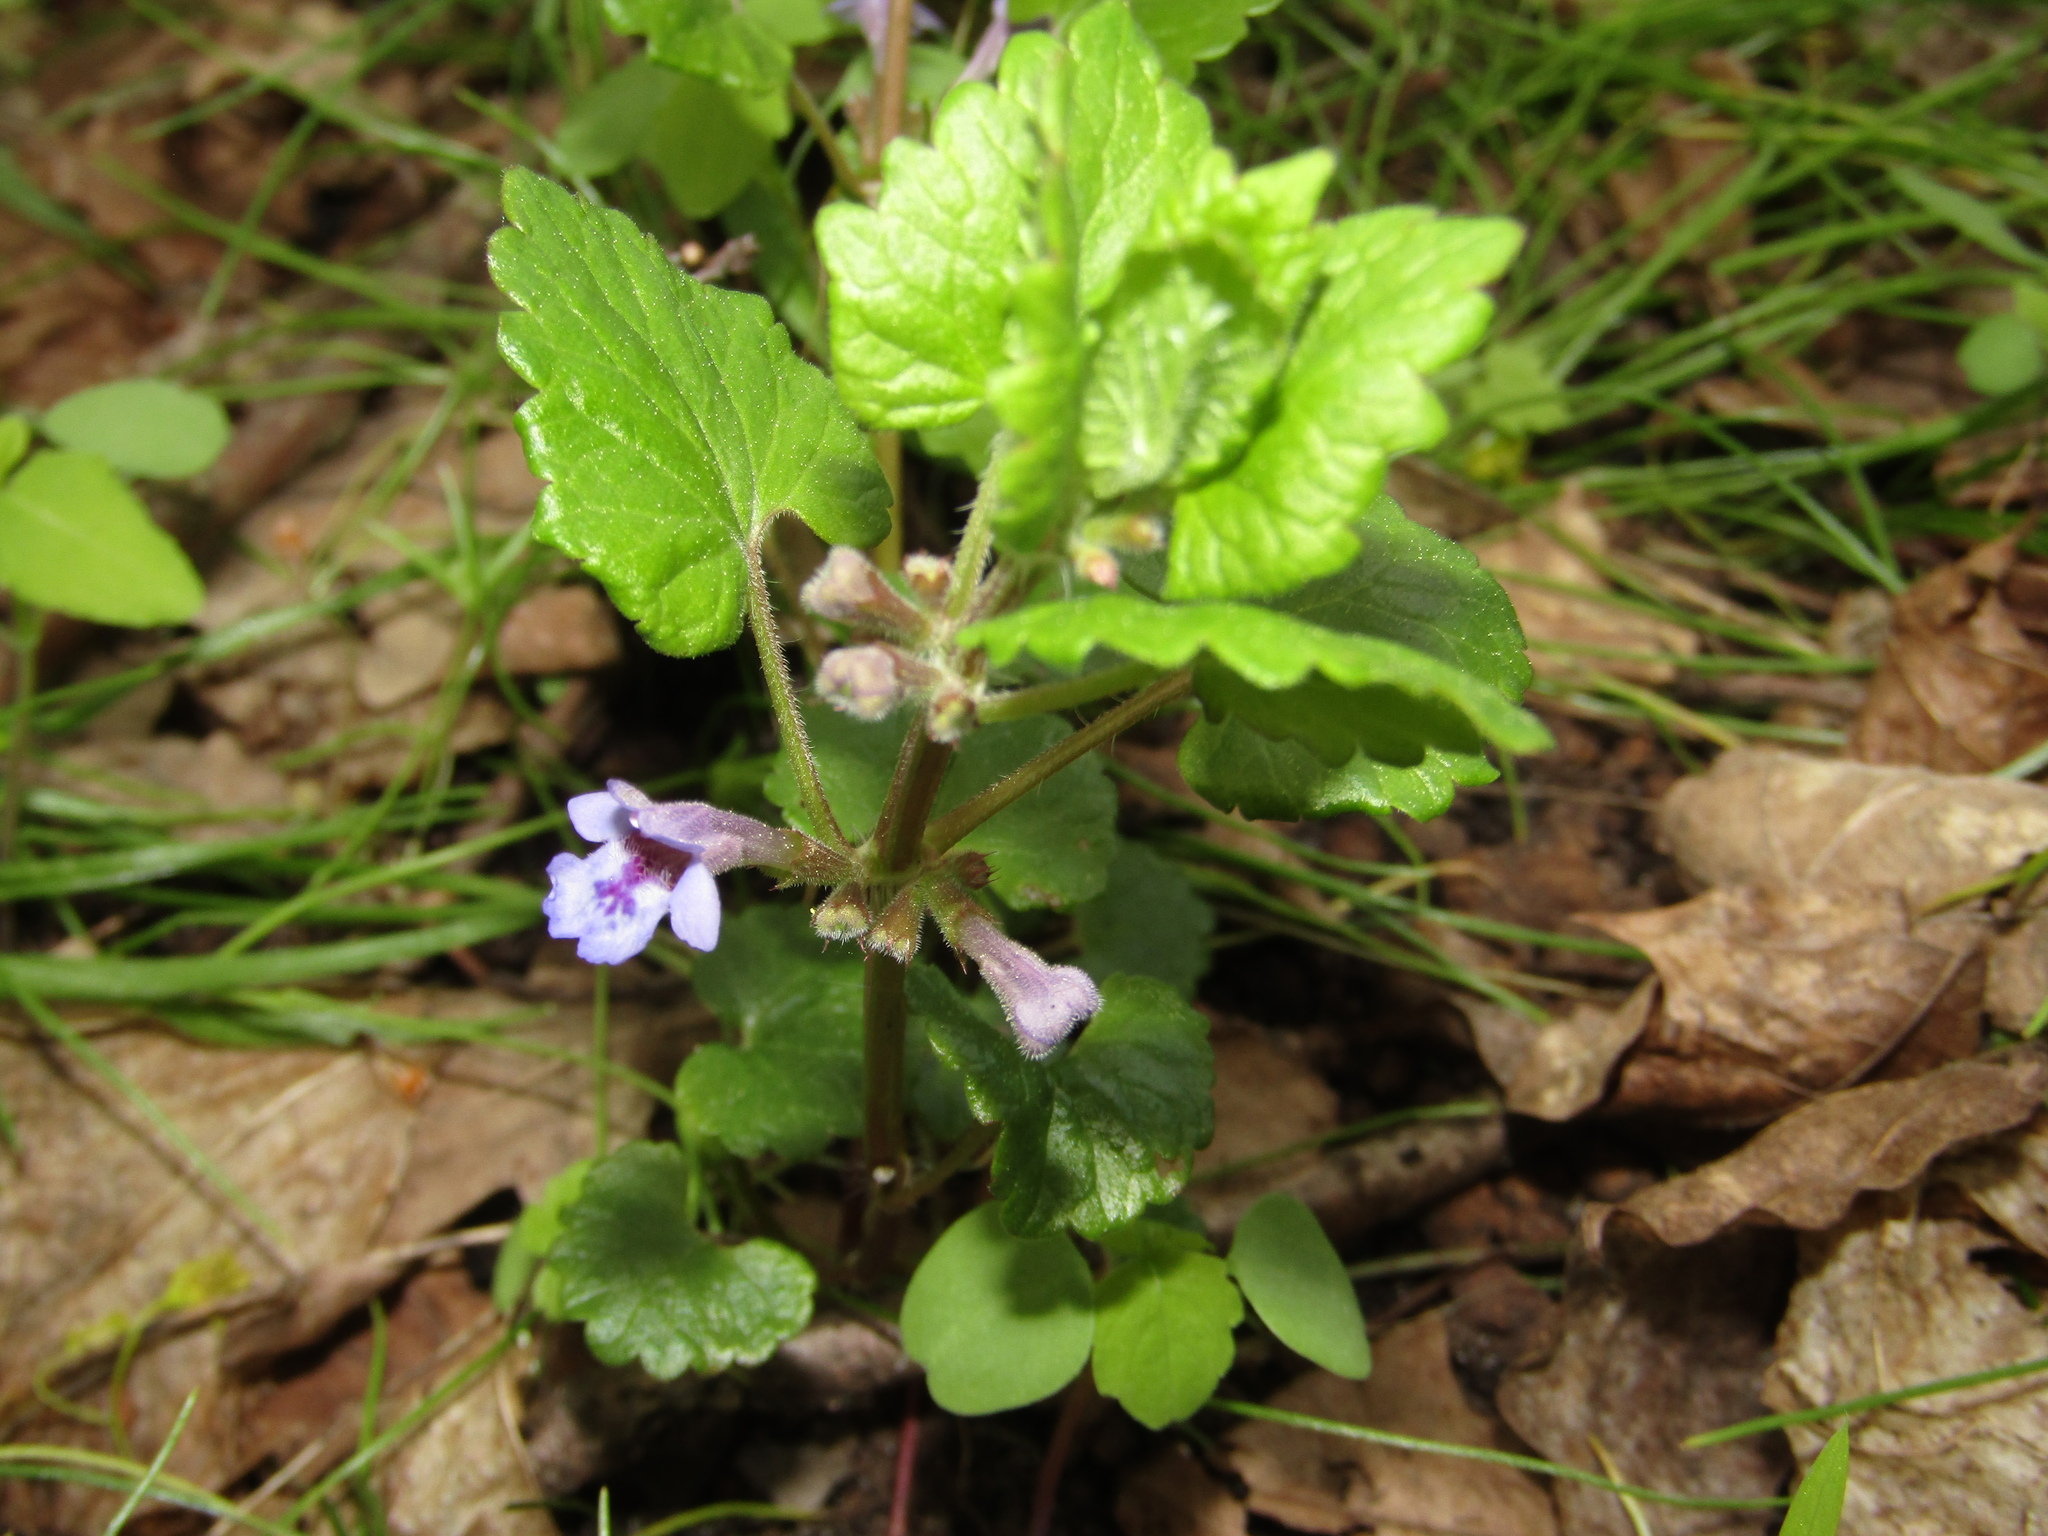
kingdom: Plantae
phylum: Tracheophyta
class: Magnoliopsida
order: Lamiales
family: Lamiaceae
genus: Glechoma
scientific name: Glechoma hederacea
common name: Ground ivy
